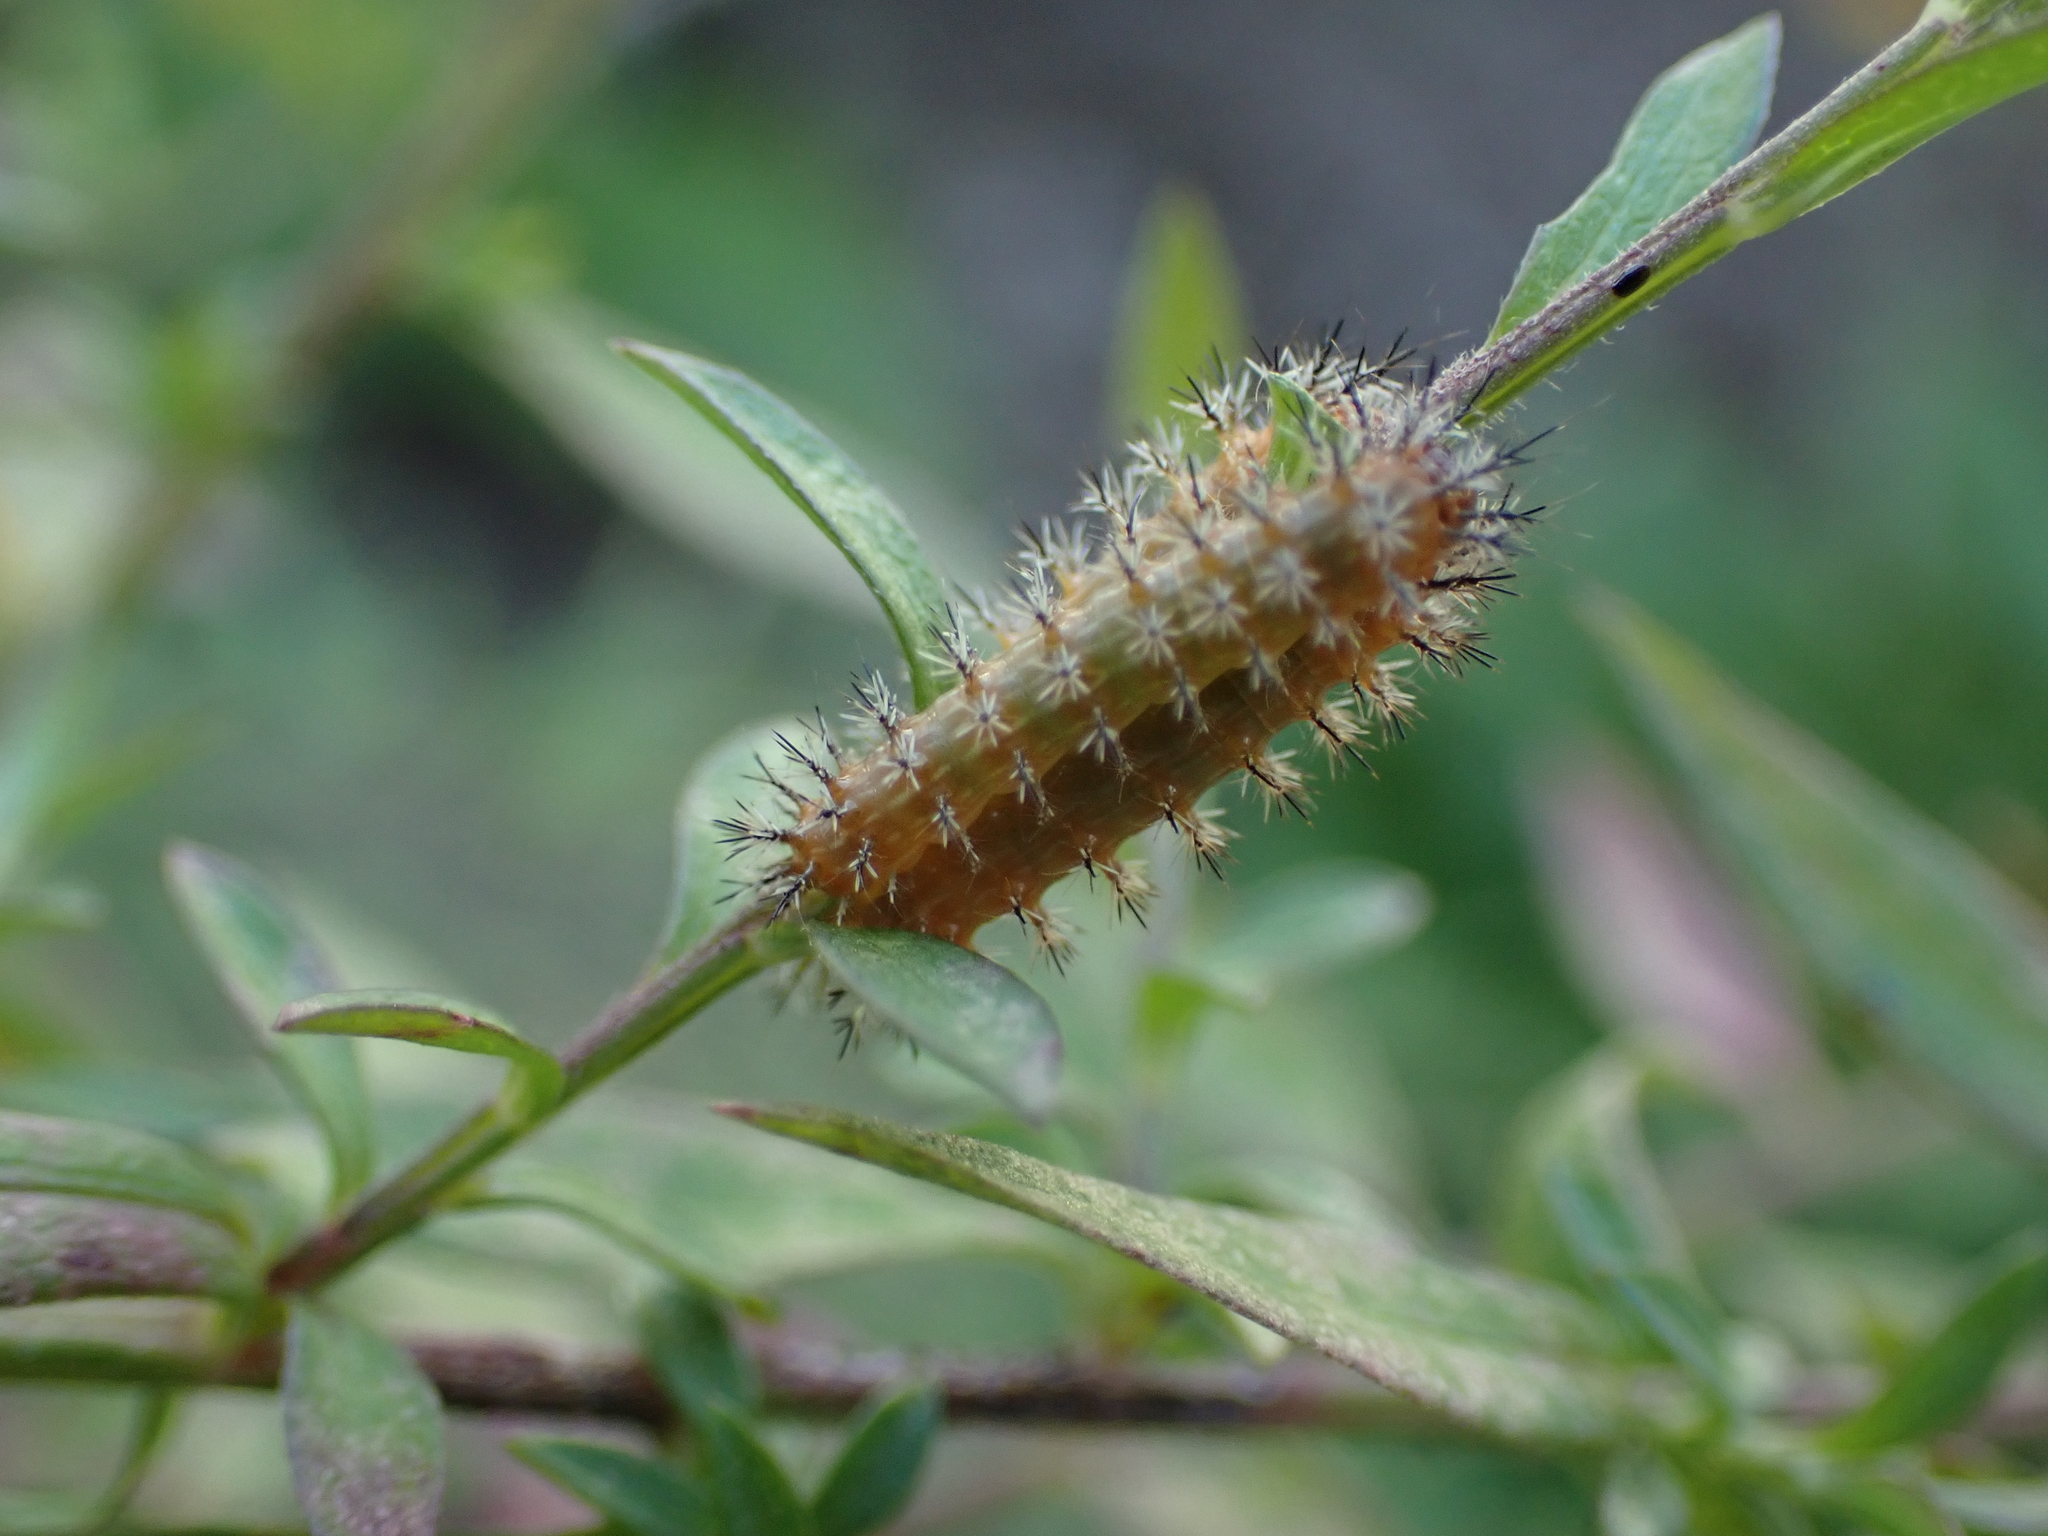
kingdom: Animalia
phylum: Arthropoda
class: Insecta
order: Lepidoptera
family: Saturniidae
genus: Automeris
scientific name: Automeris io
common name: Io moth
